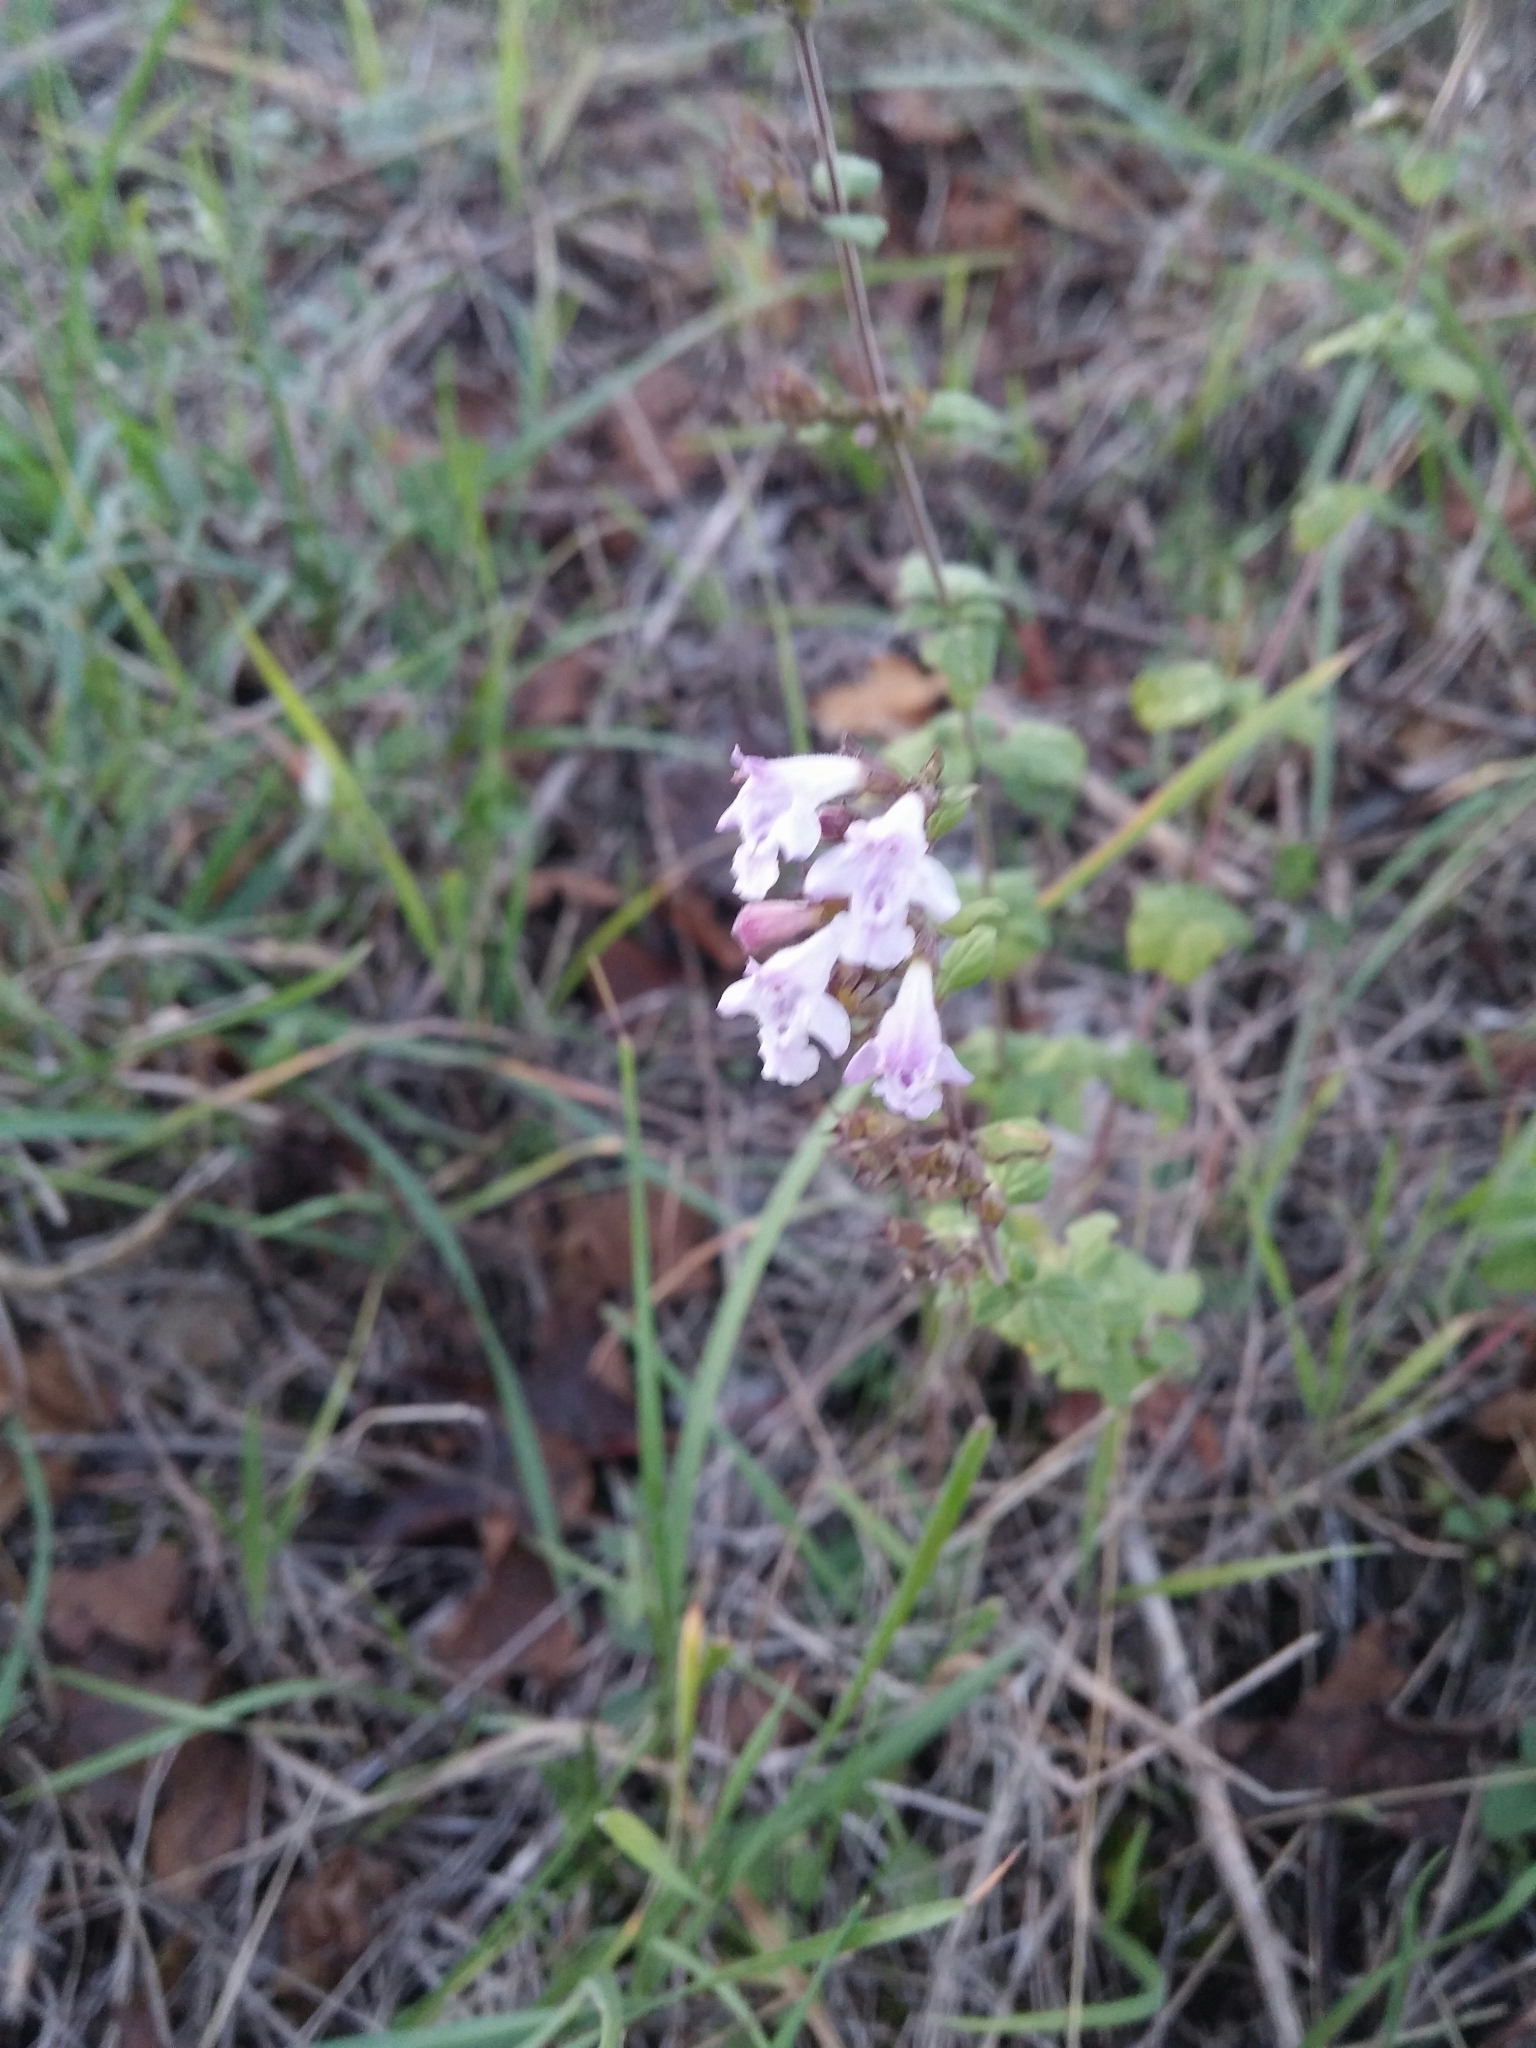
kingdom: Plantae
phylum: Tracheophyta
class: Magnoliopsida
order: Lamiales
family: Lamiaceae
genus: Clinopodium
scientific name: Clinopodium nepeta
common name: Lesser calamint
